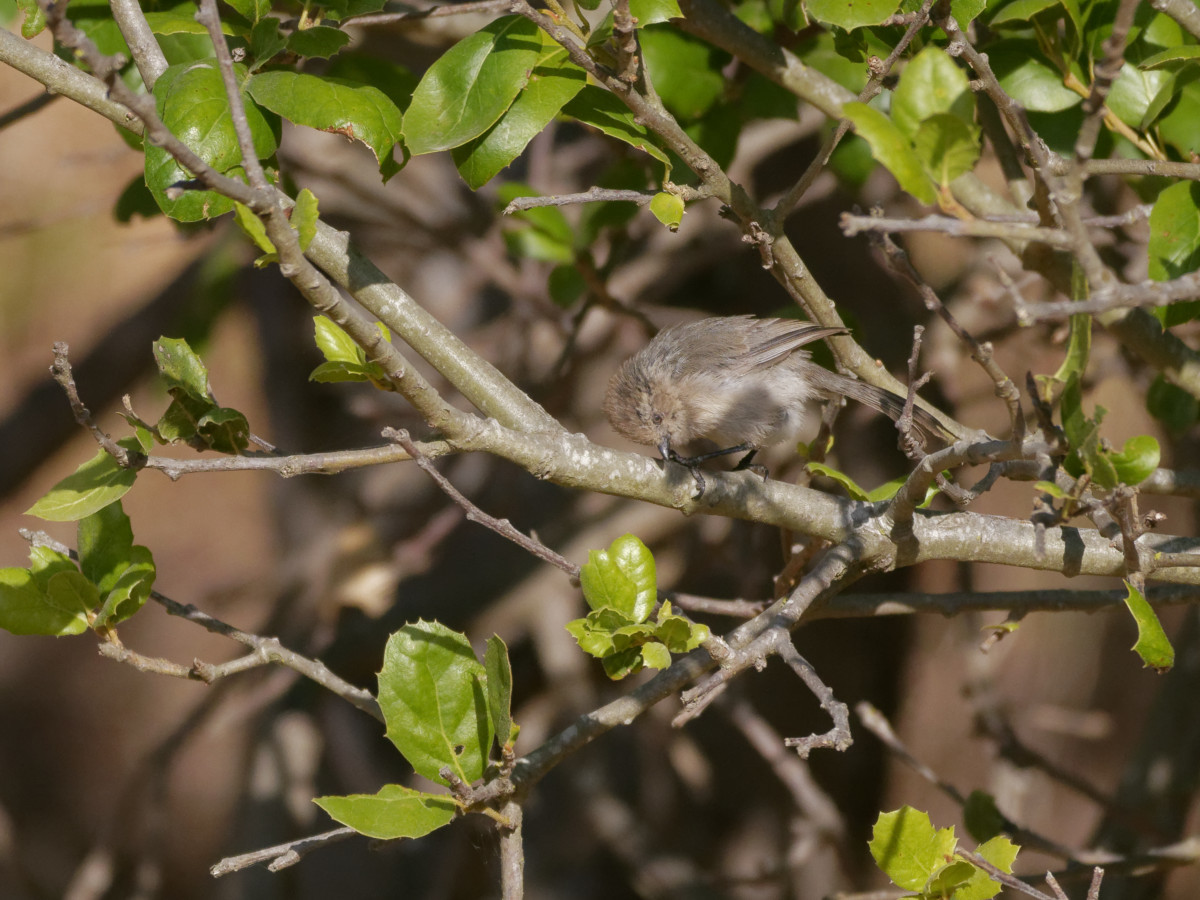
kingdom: Animalia
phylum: Chordata
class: Aves
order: Passeriformes
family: Aegithalidae
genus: Psaltriparus
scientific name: Psaltriparus minimus
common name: American bushtit
